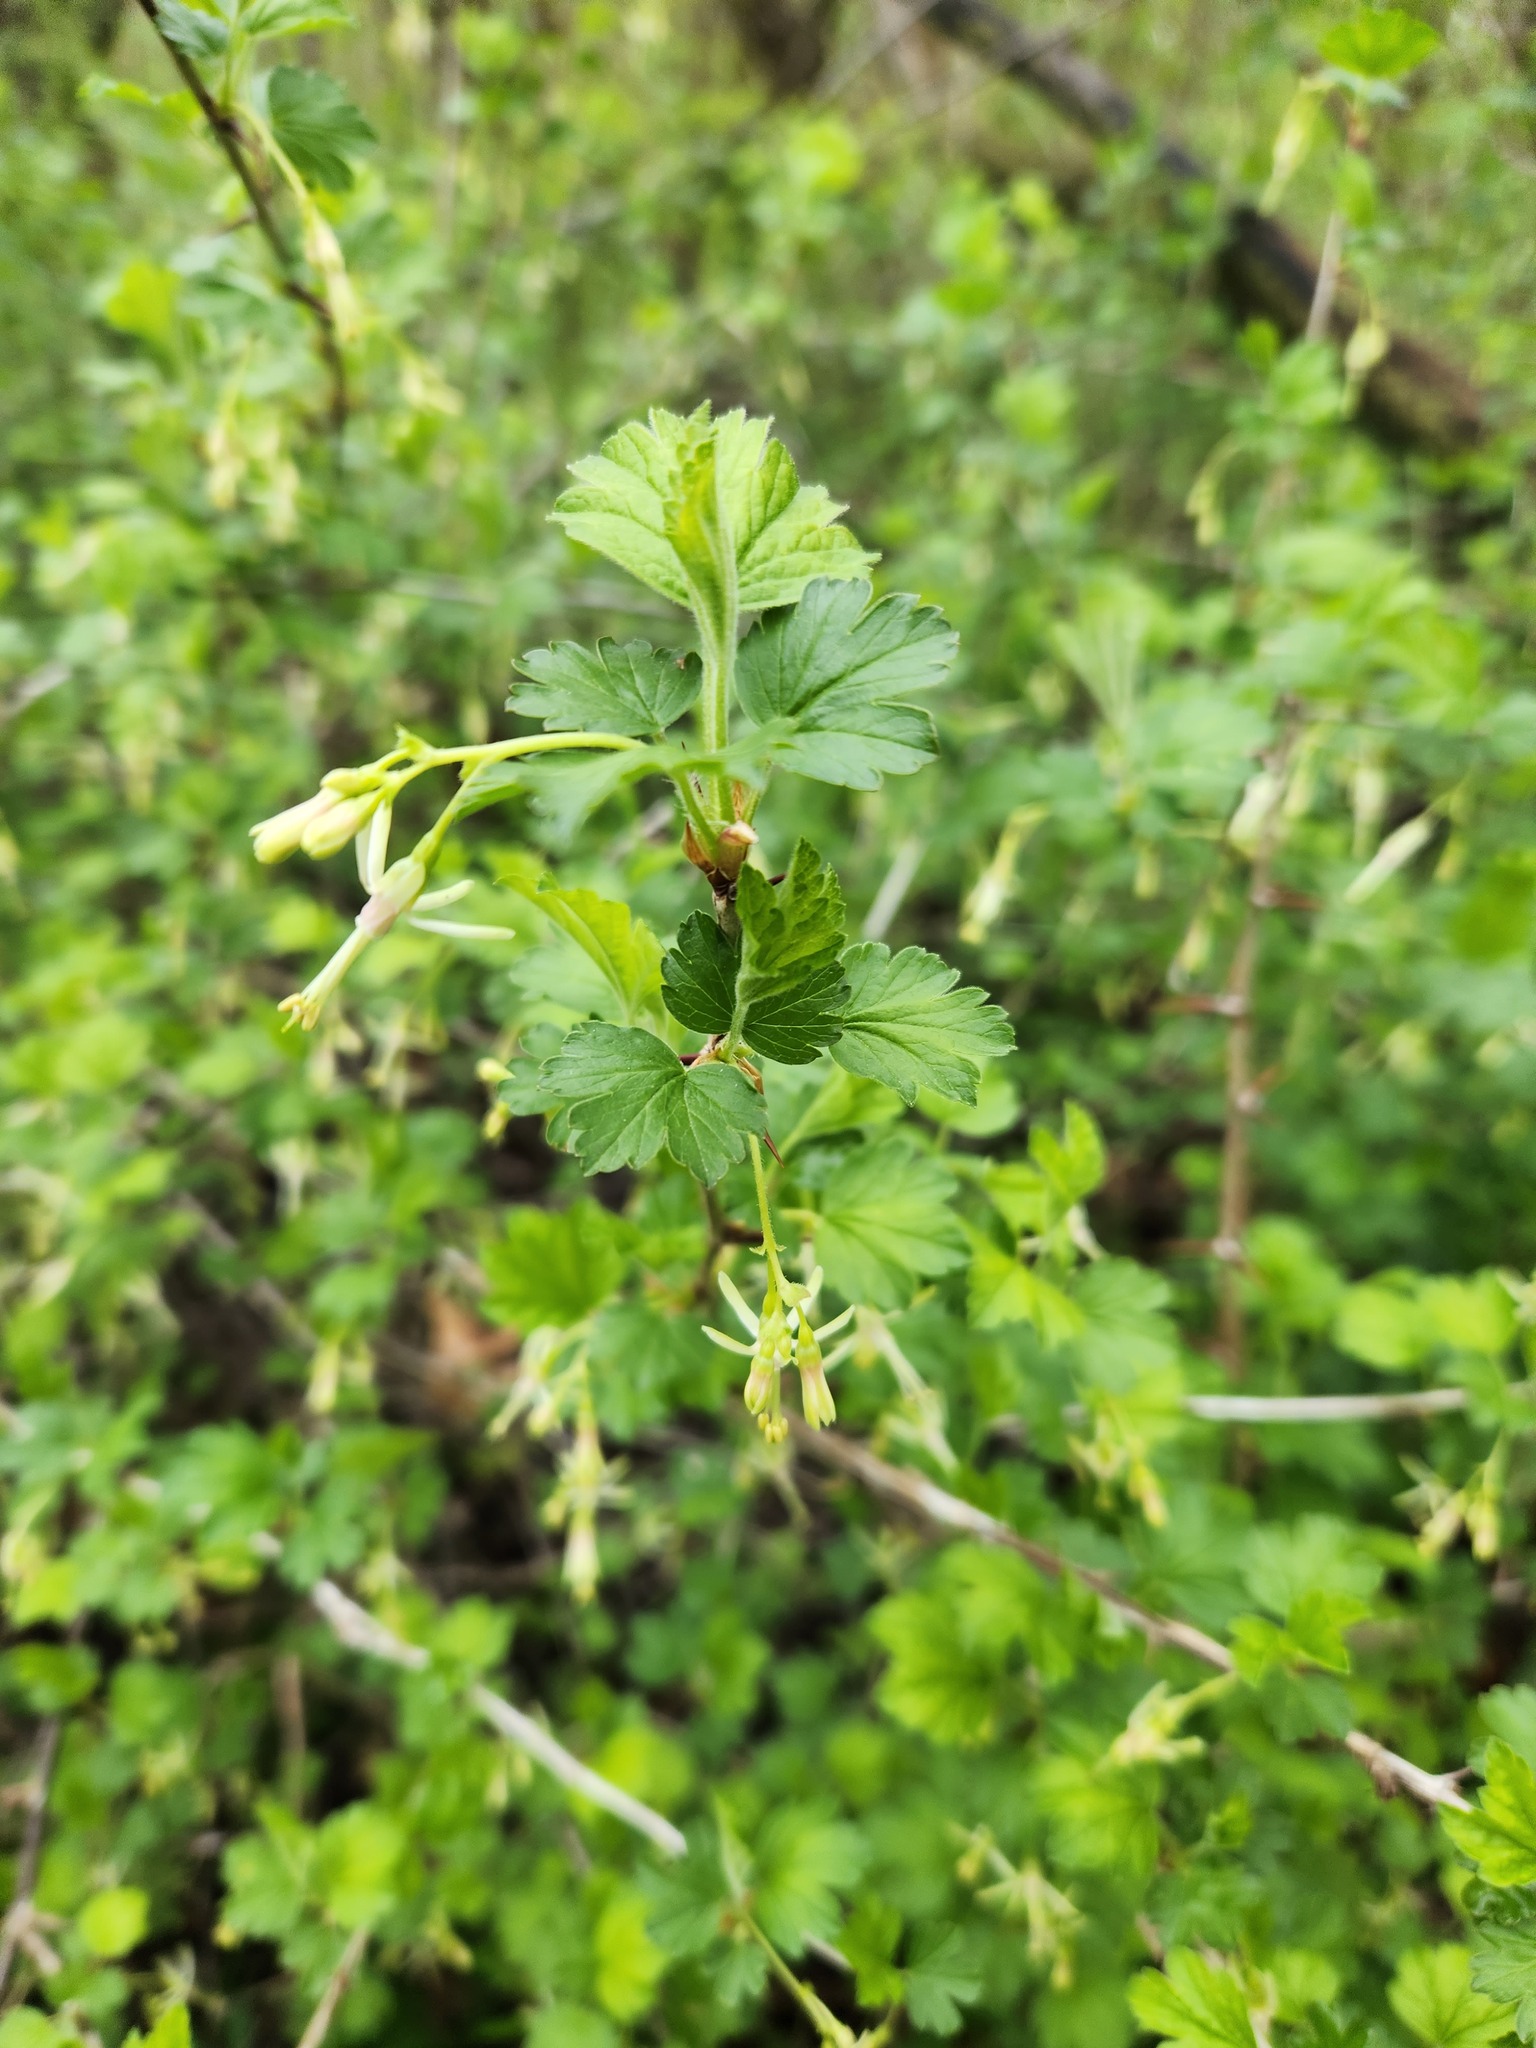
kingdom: Plantae
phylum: Tracheophyta
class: Magnoliopsida
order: Saxifragales
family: Grossulariaceae
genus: Ribes
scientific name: Ribes missouriense
